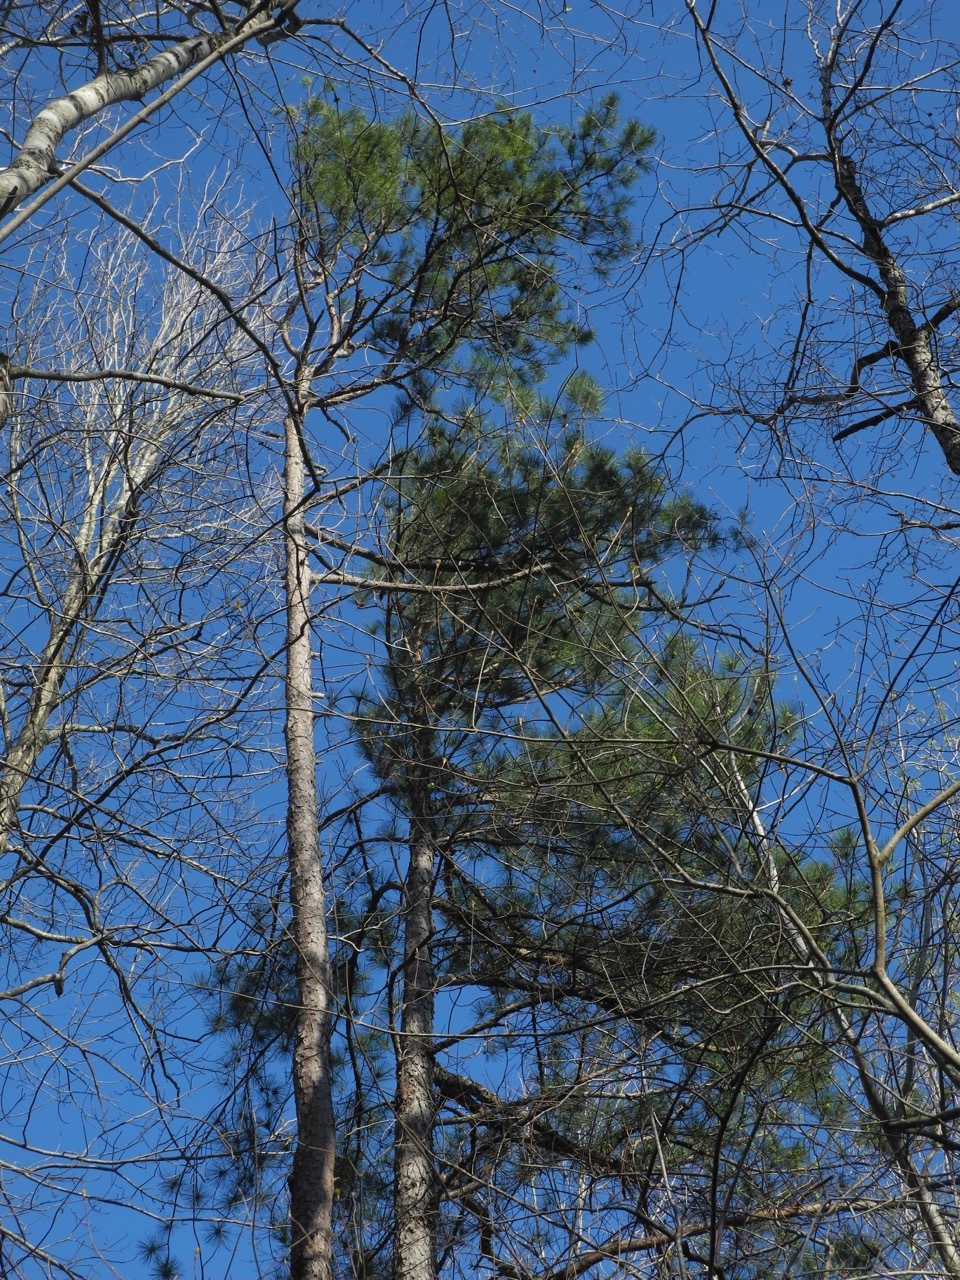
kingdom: Plantae
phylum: Tracheophyta
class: Pinopsida
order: Pinales
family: Pinaceae
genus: Pinus
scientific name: Pinus echinata
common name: Shortleaf pine
